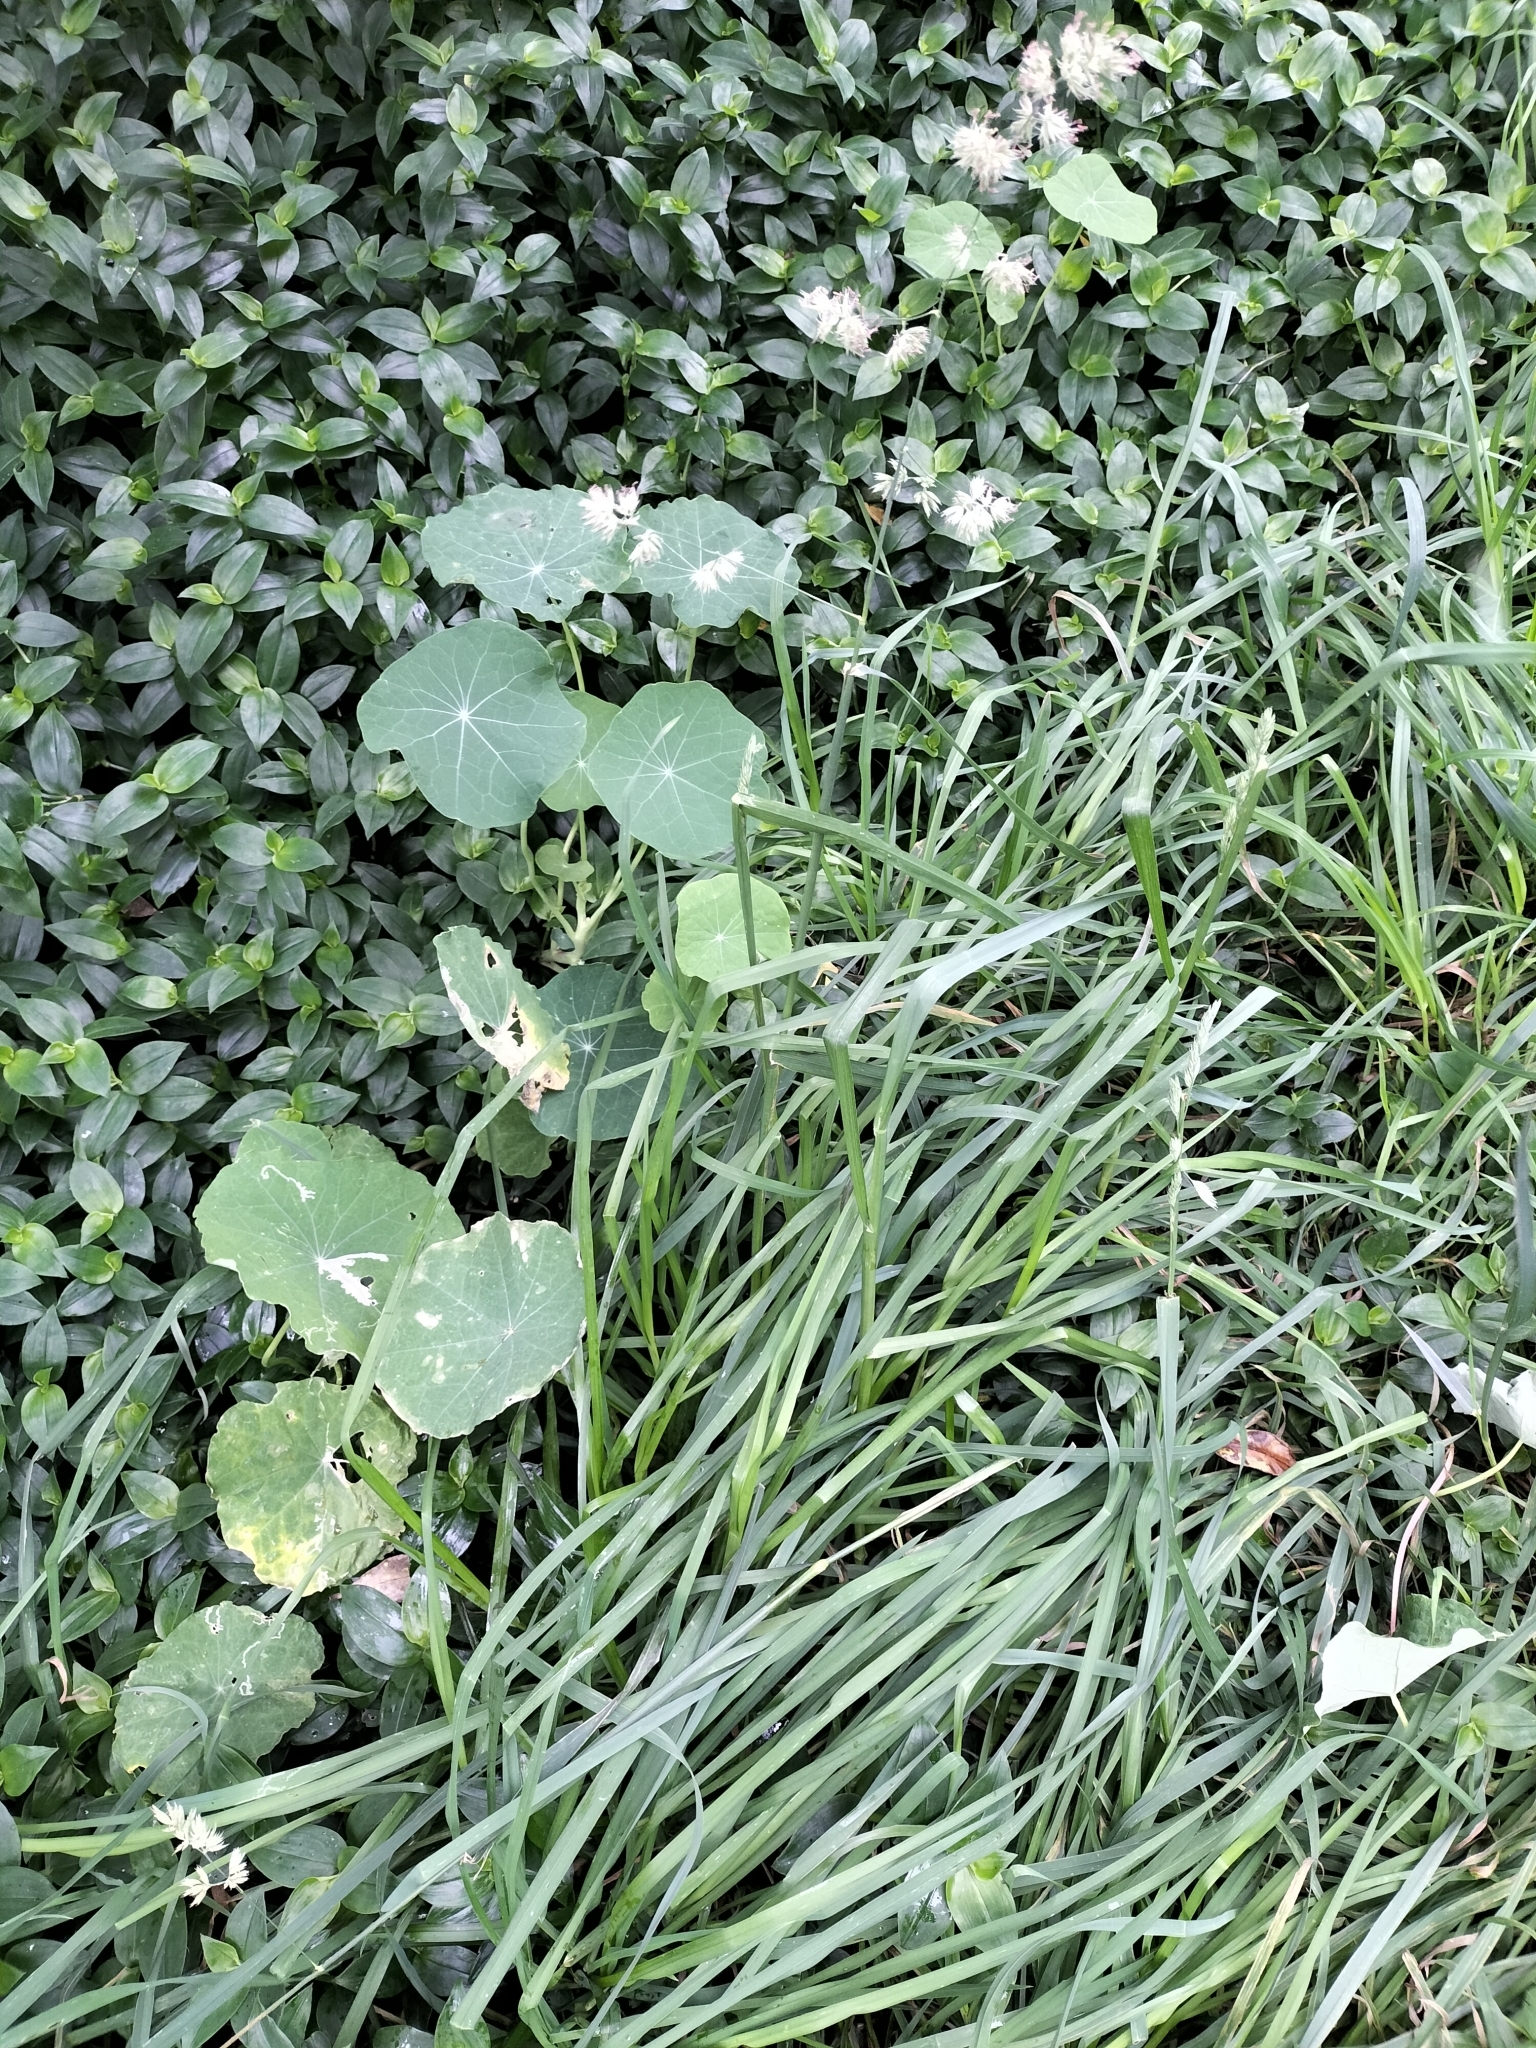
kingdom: Plantae
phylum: Tracheophyta
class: Liliopsida
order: Poales
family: Poaceae
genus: Dactylis
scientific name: Dactylis glomerata
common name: Orchardgrass
